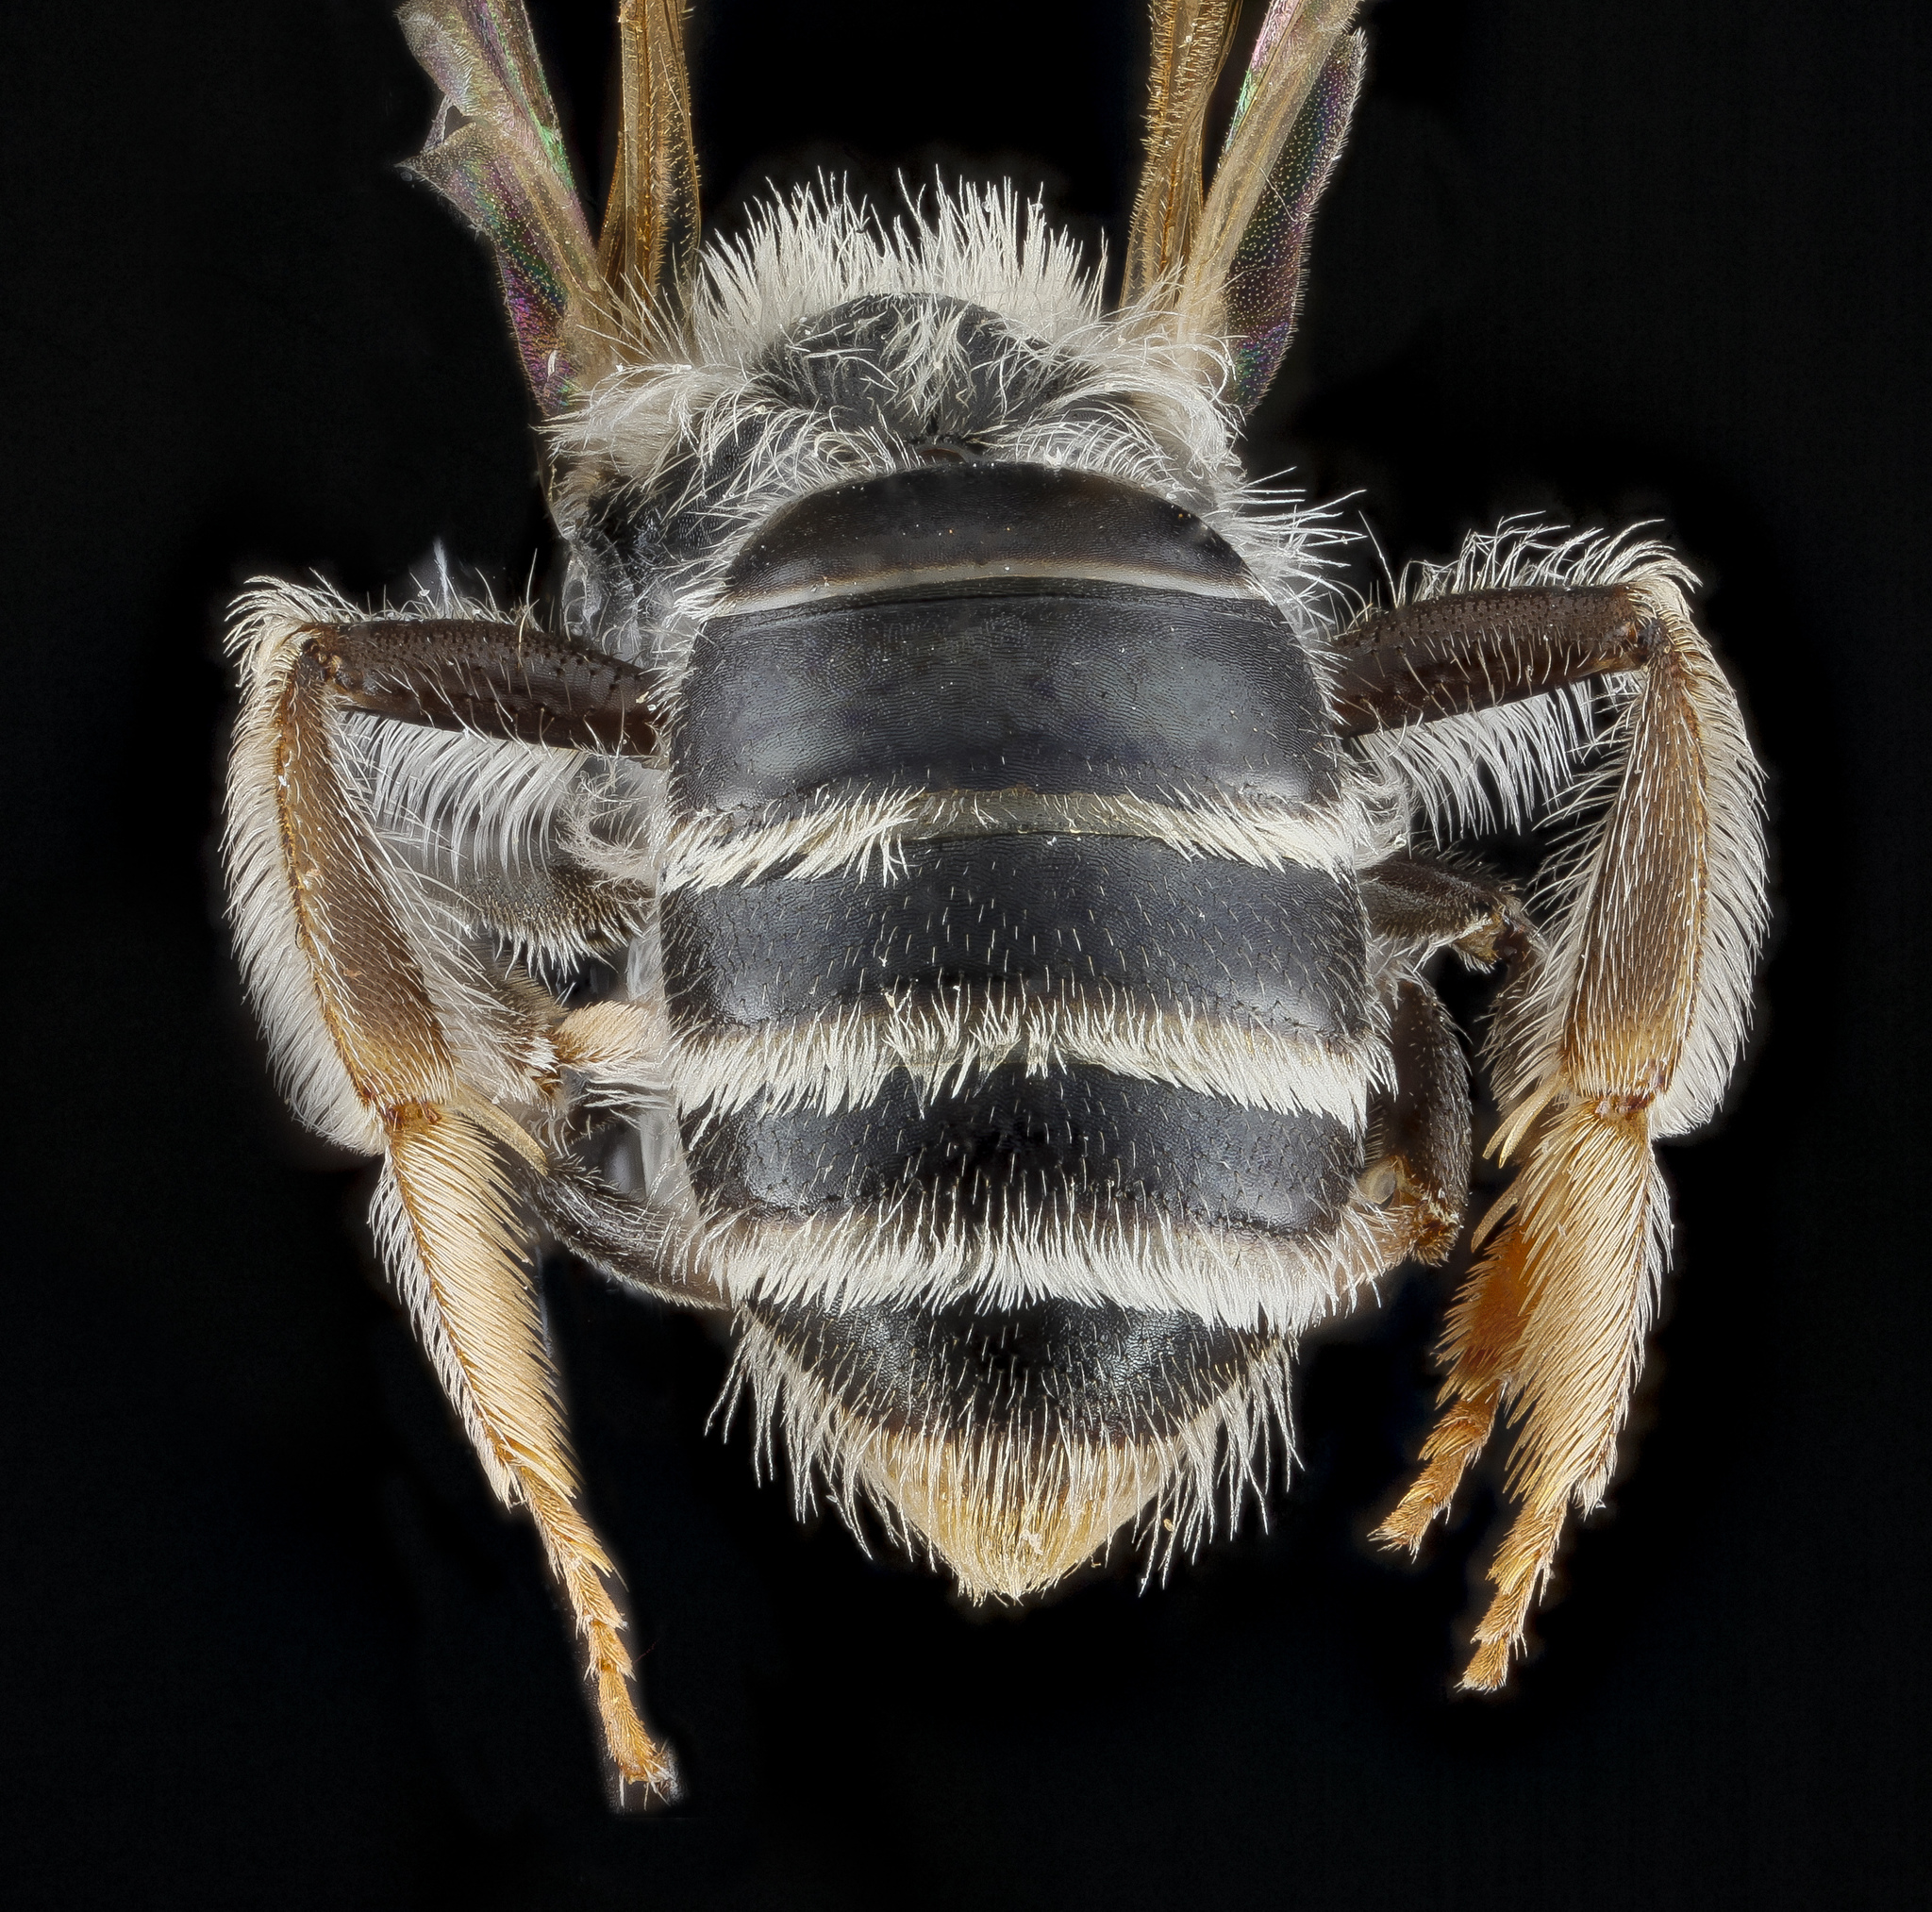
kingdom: Animalia
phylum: Arthropoda
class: Insecta
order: Hymenoptera
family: Andrenidae
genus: Andrena
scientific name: Andrena illinoiensis
